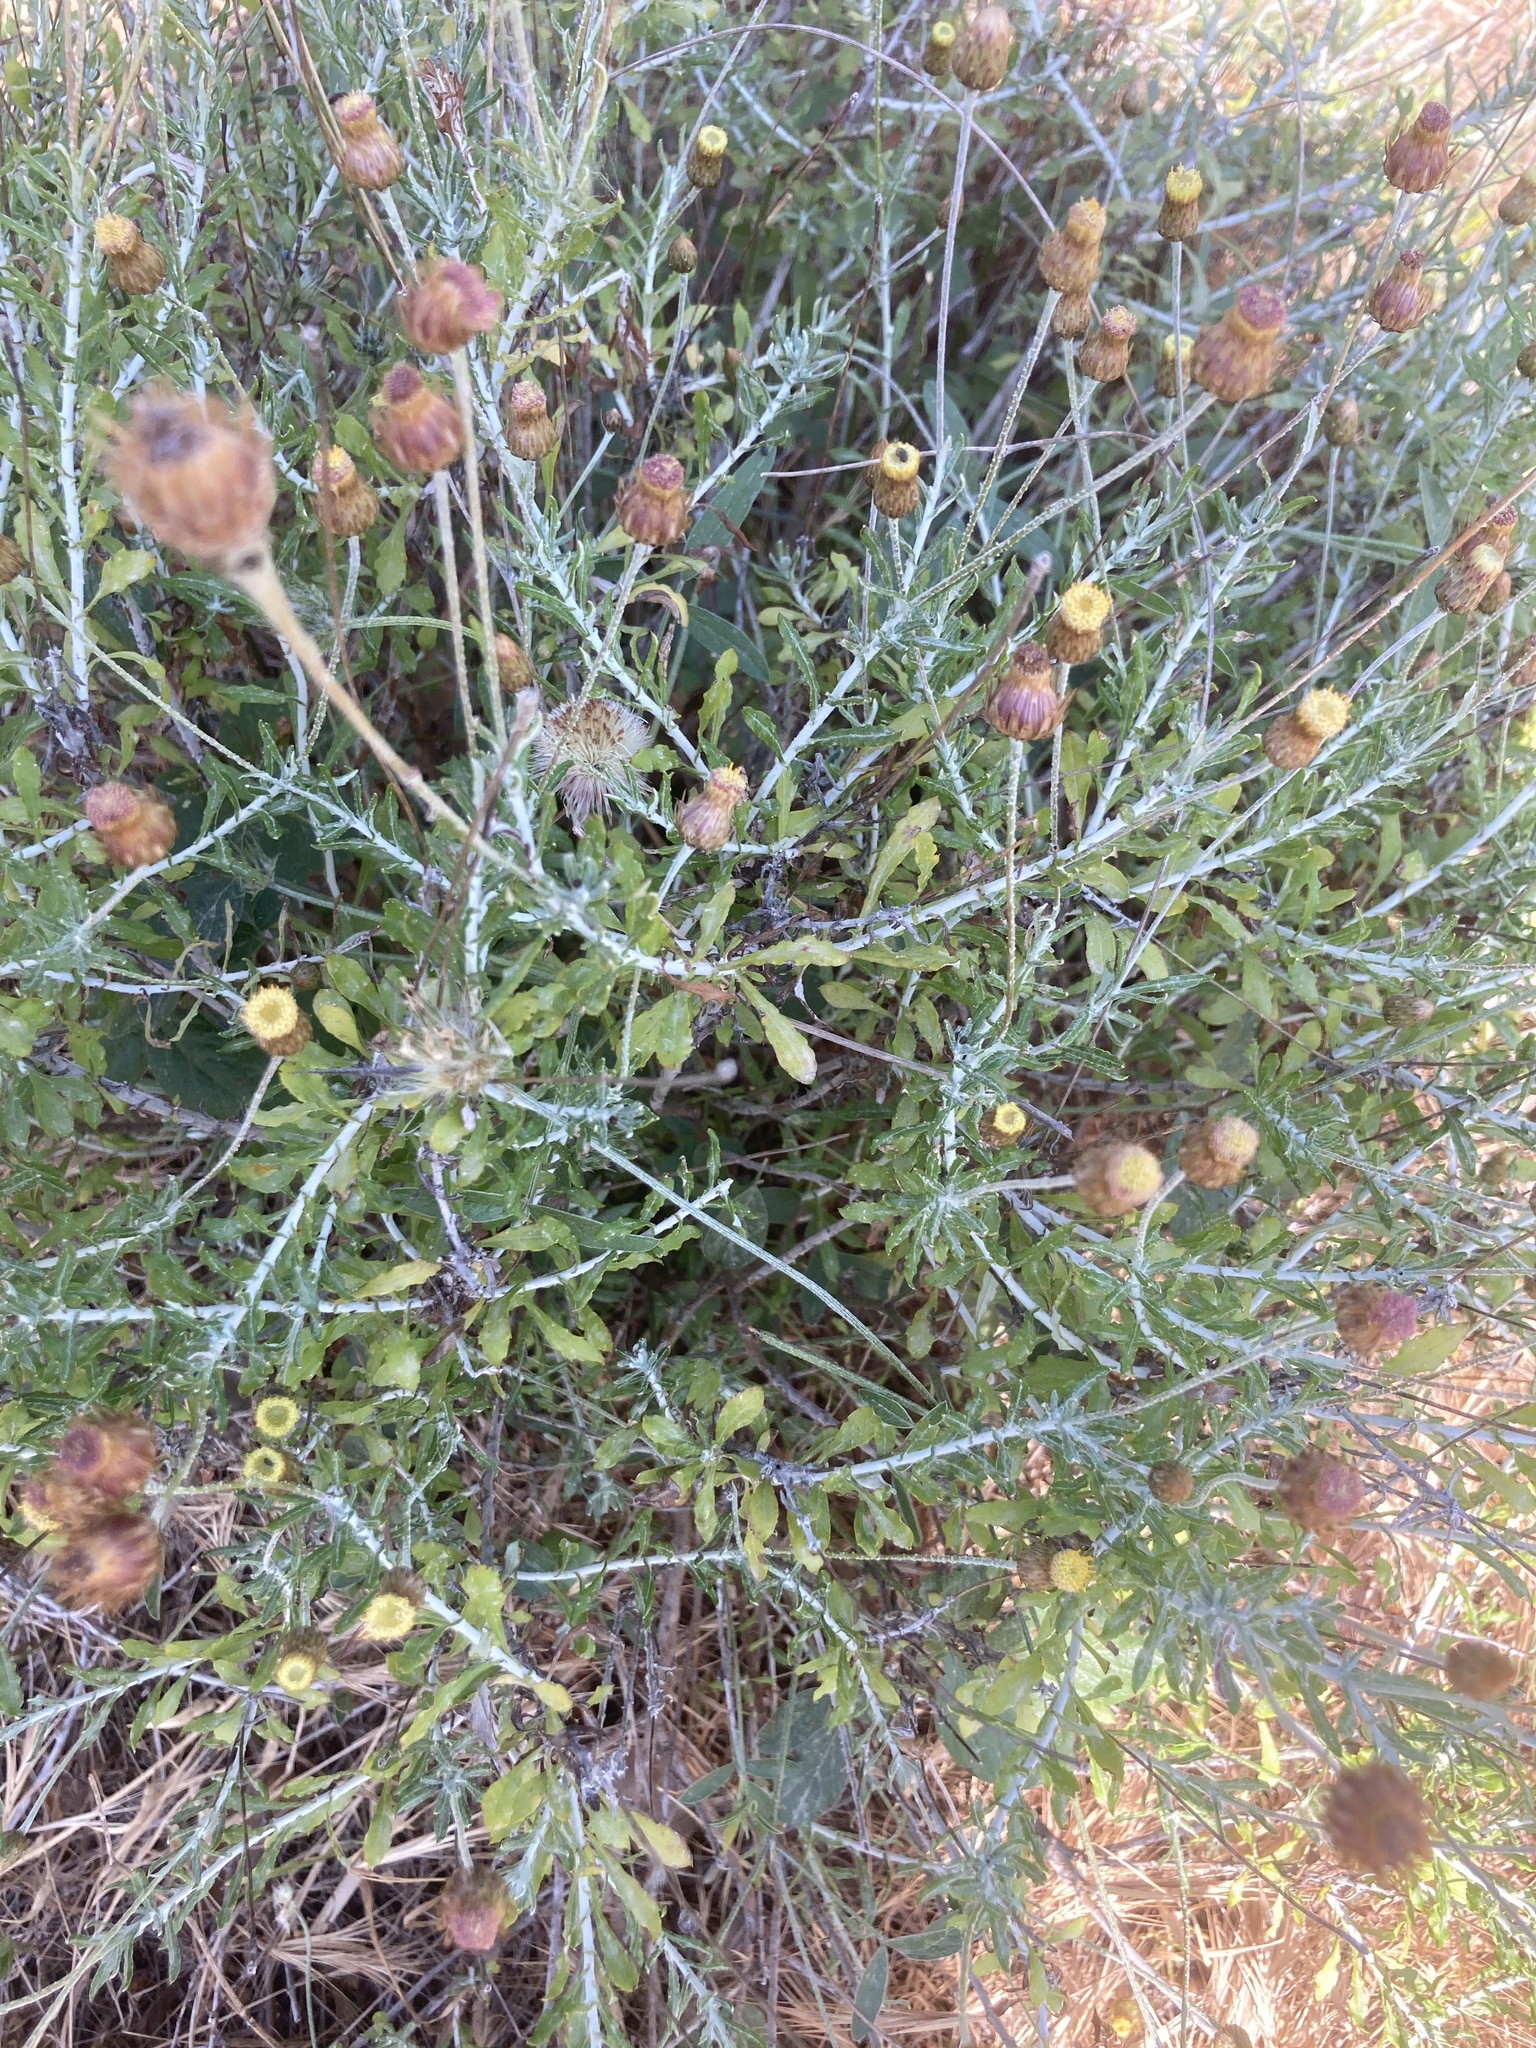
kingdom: Plantae
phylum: Tracheophyta
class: Magnoliopsida
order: Asterales
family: Asteraceae
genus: Phagnalon
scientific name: Phagnalon graecum
